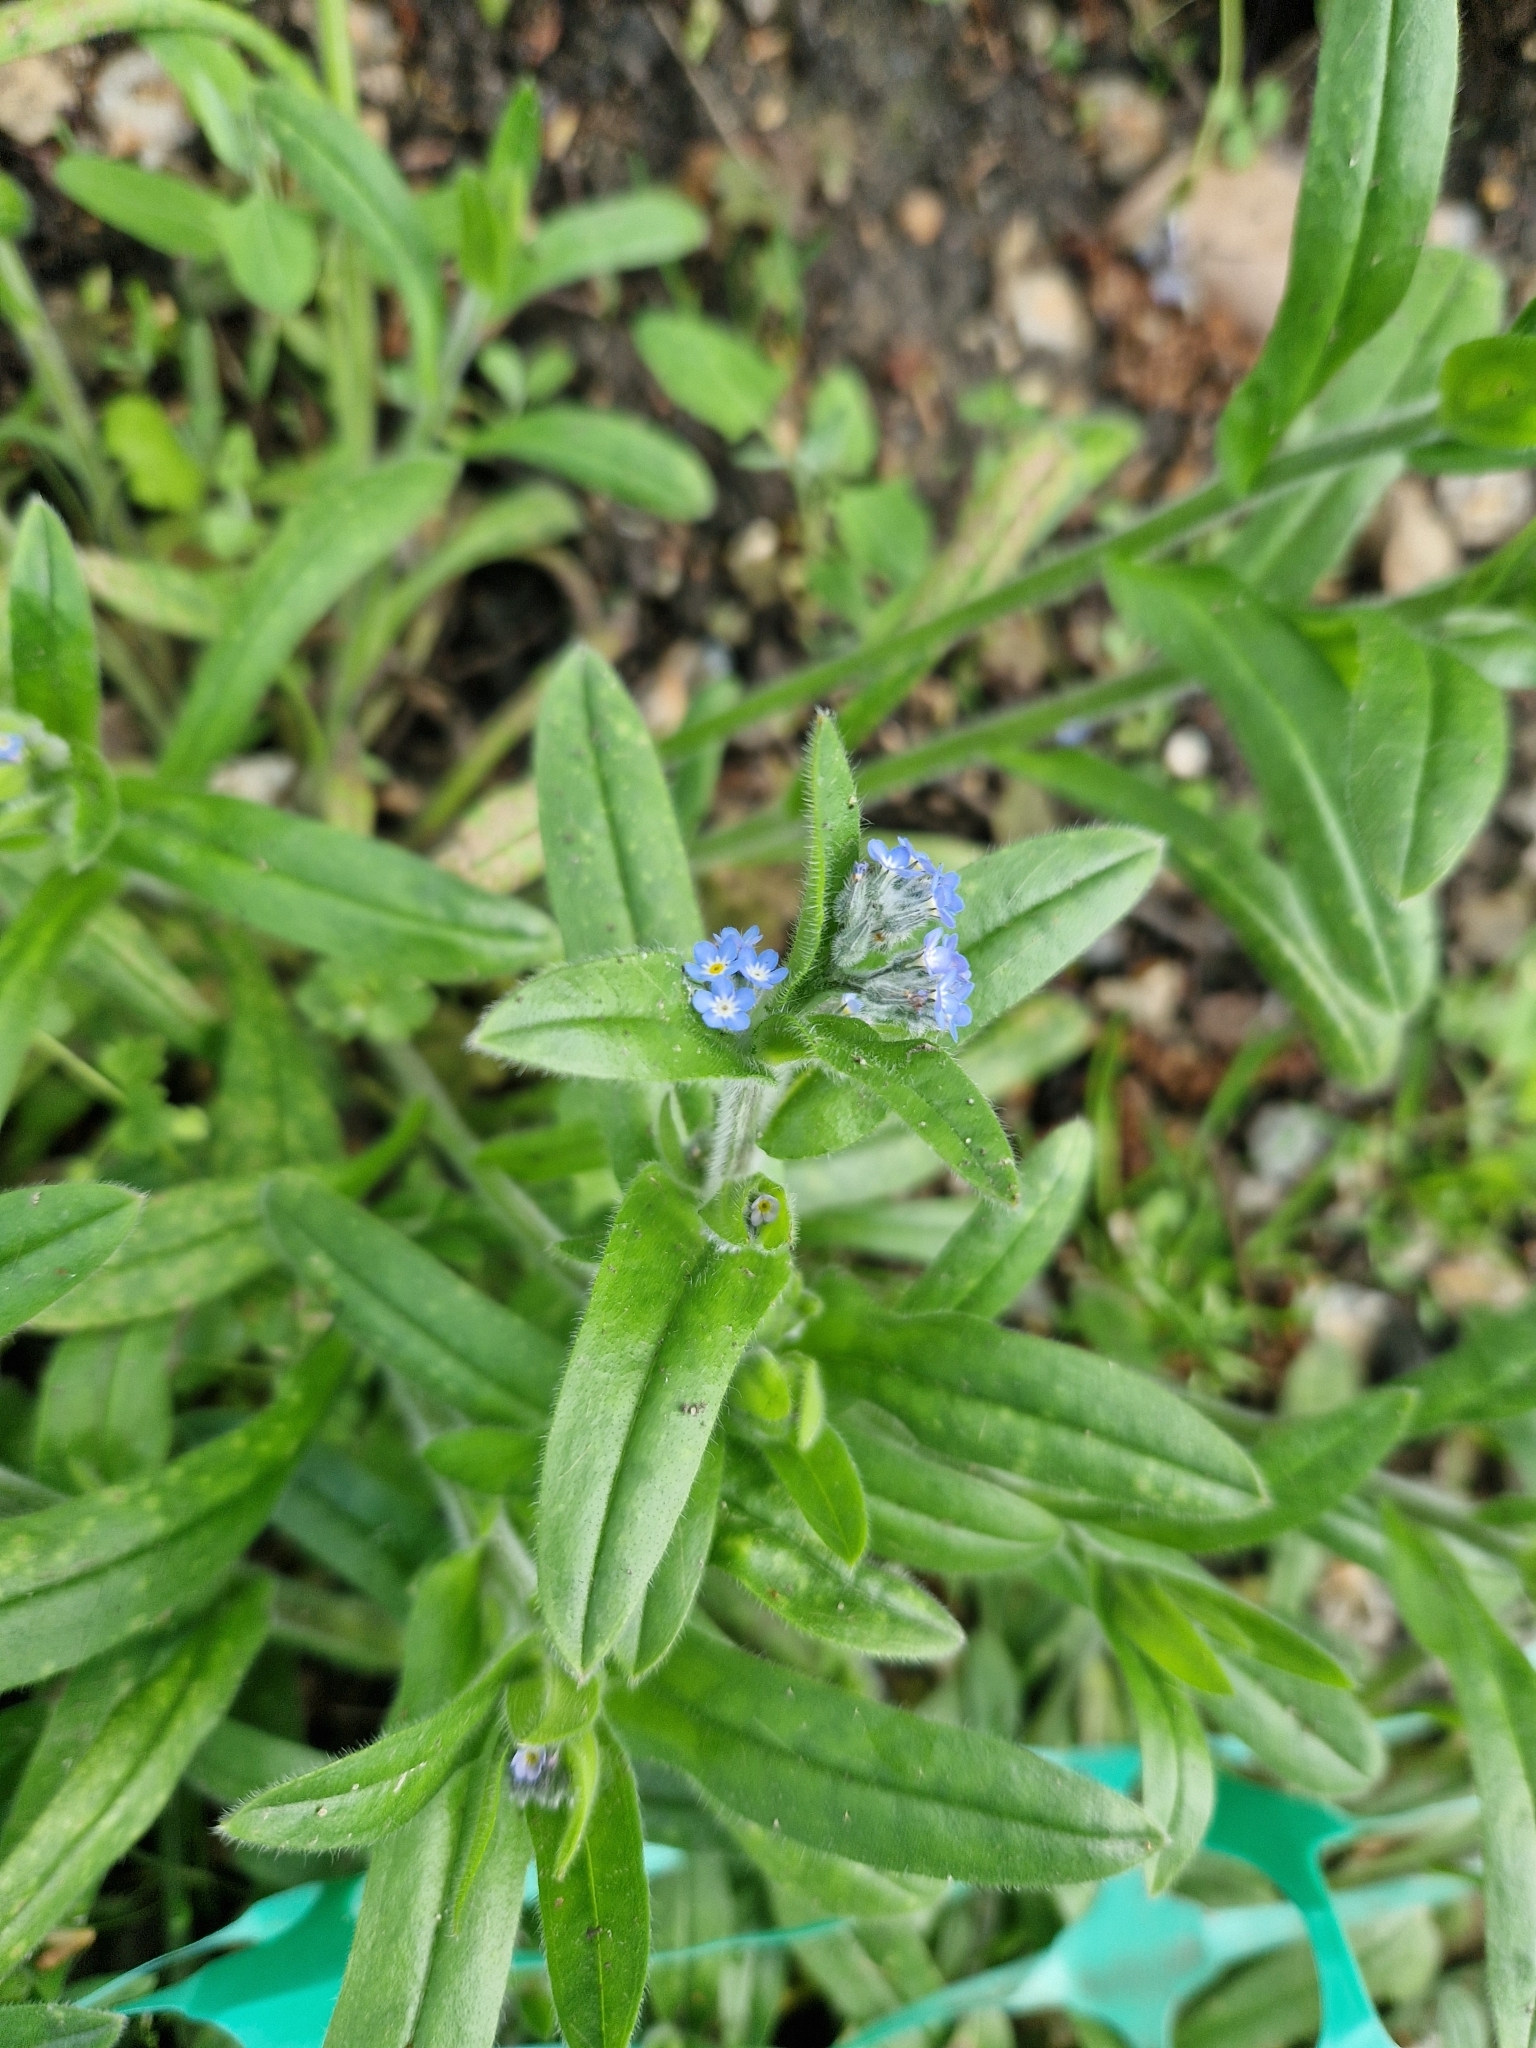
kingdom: Plantae
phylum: Tracheophyta
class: Magnoliopsida
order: Boraginales
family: Boraginaceae
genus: Myosotis
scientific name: Myosotis arvensis
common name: Field forget-me-not
